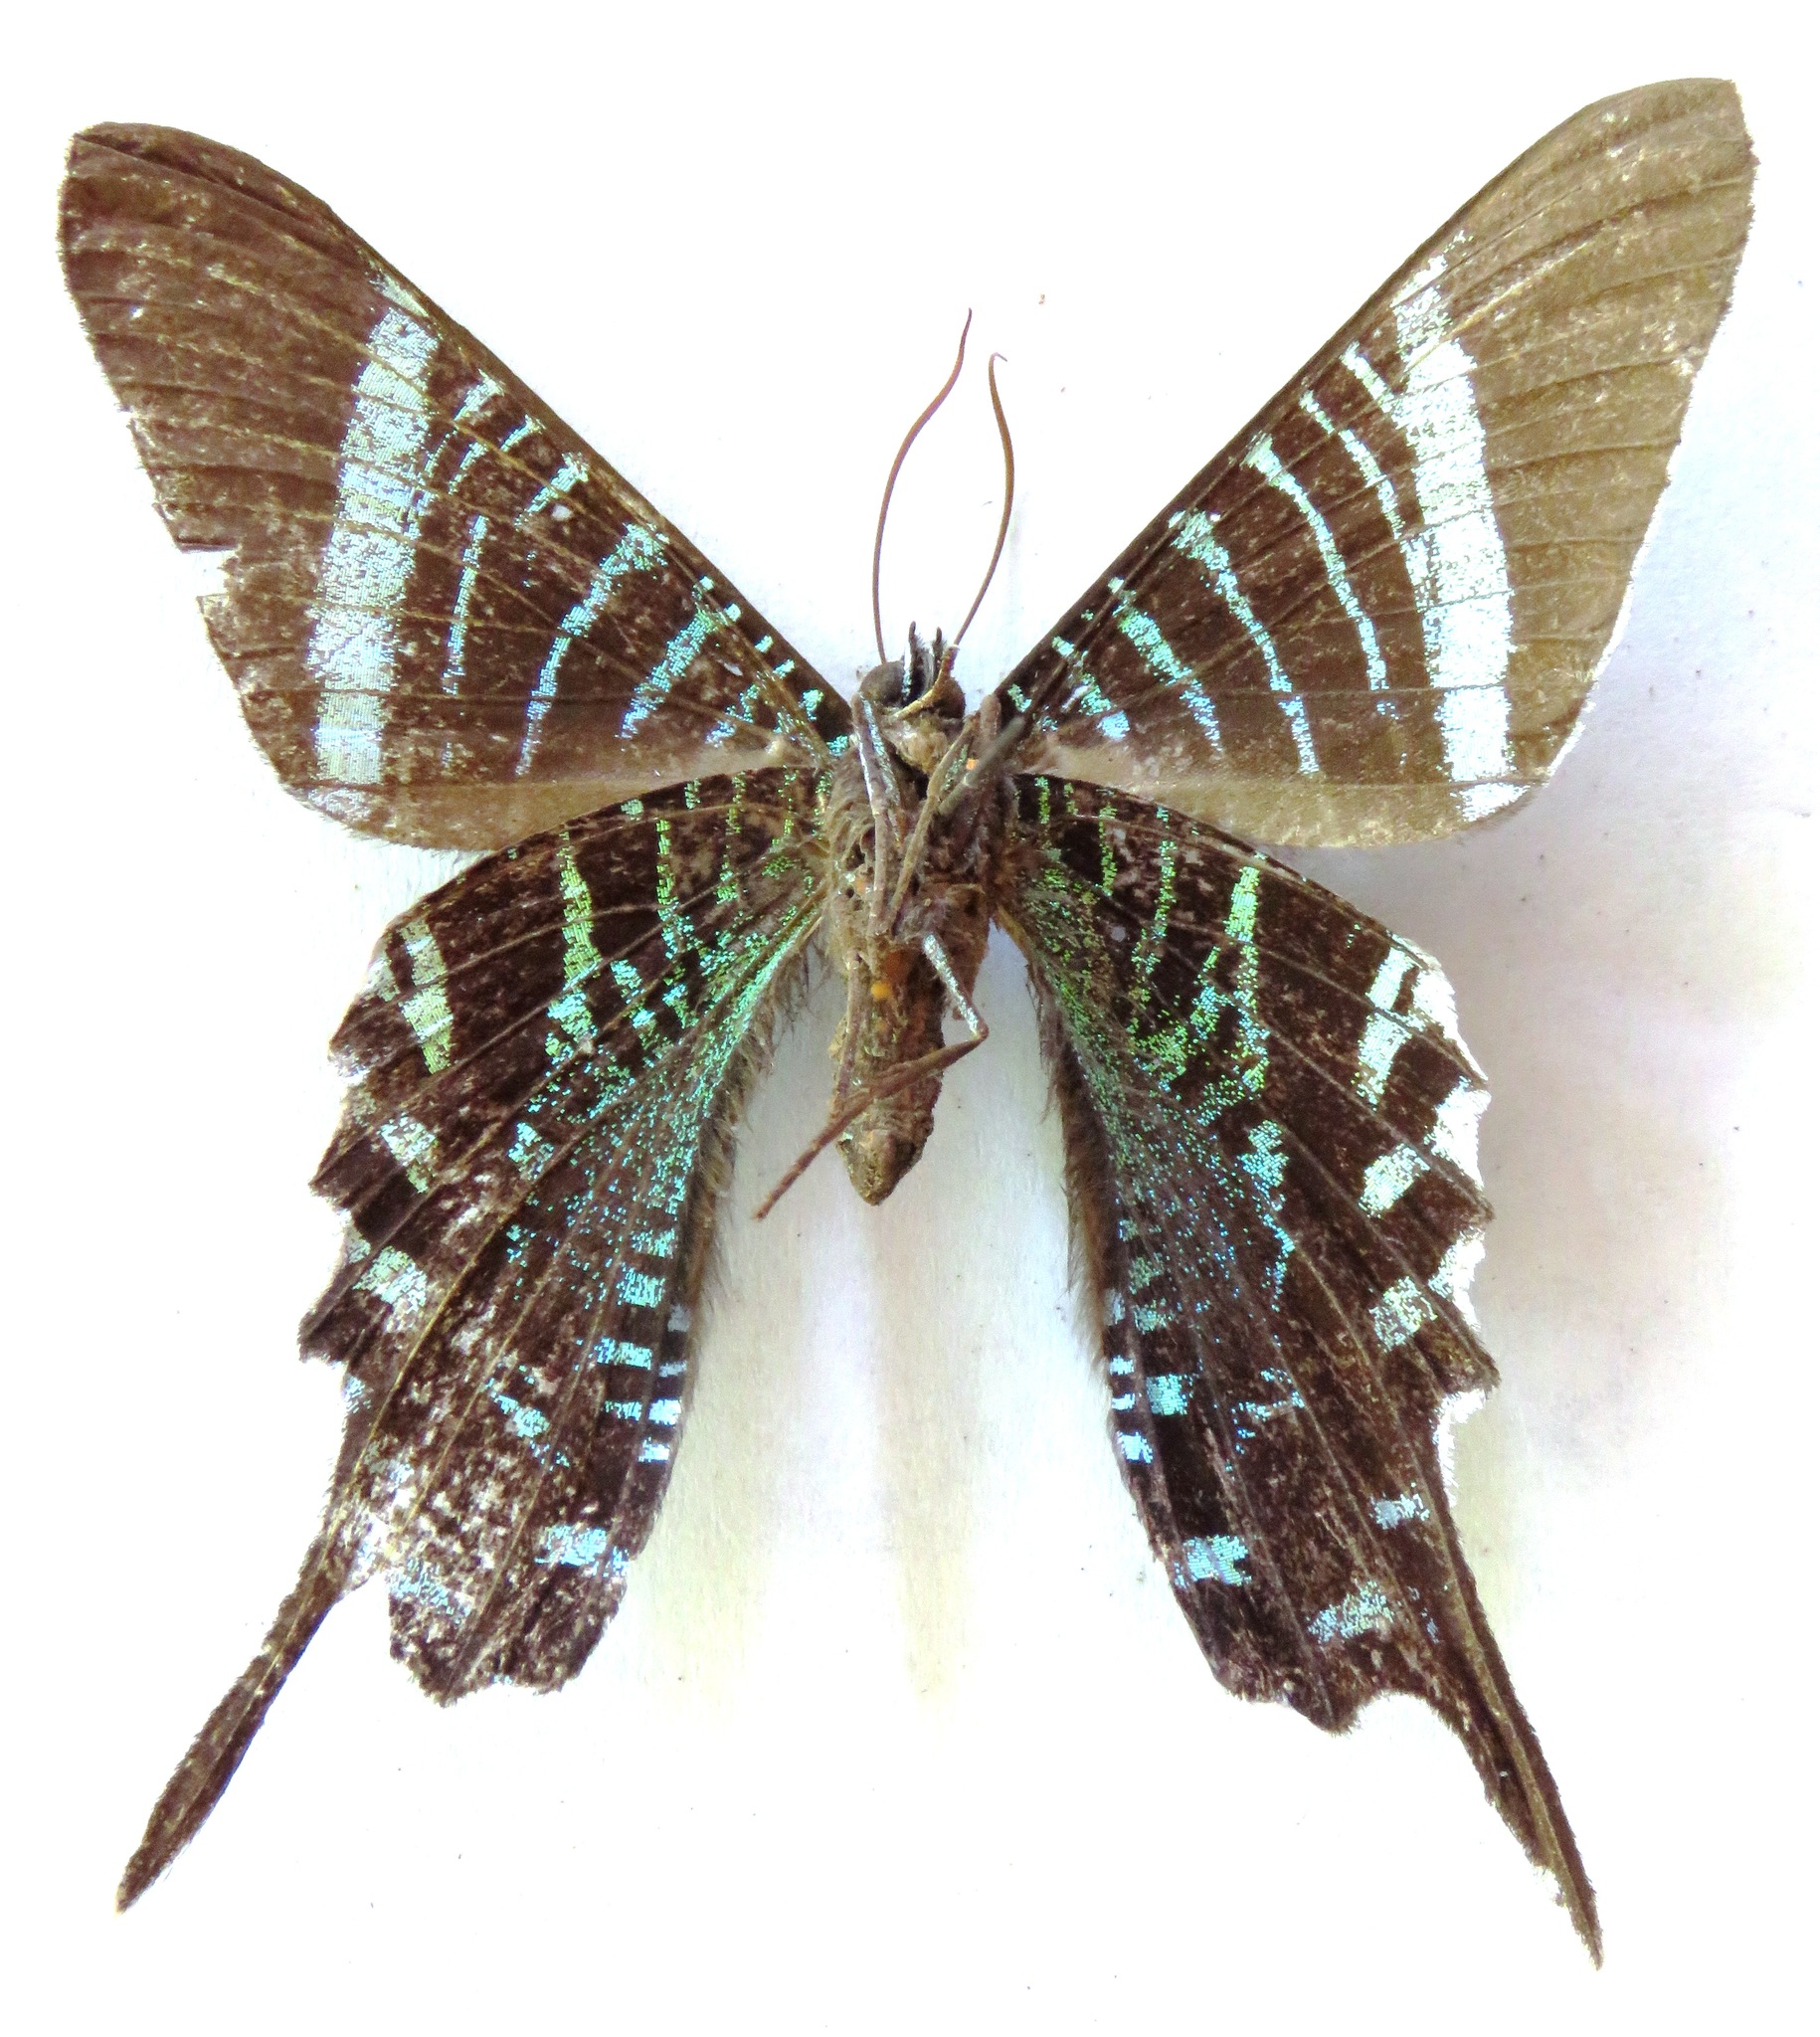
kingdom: Animalia
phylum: Arthropoda
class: Insecta
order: Lepidoptera
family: Uraniidae
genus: Urania
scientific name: Urania fulgens
